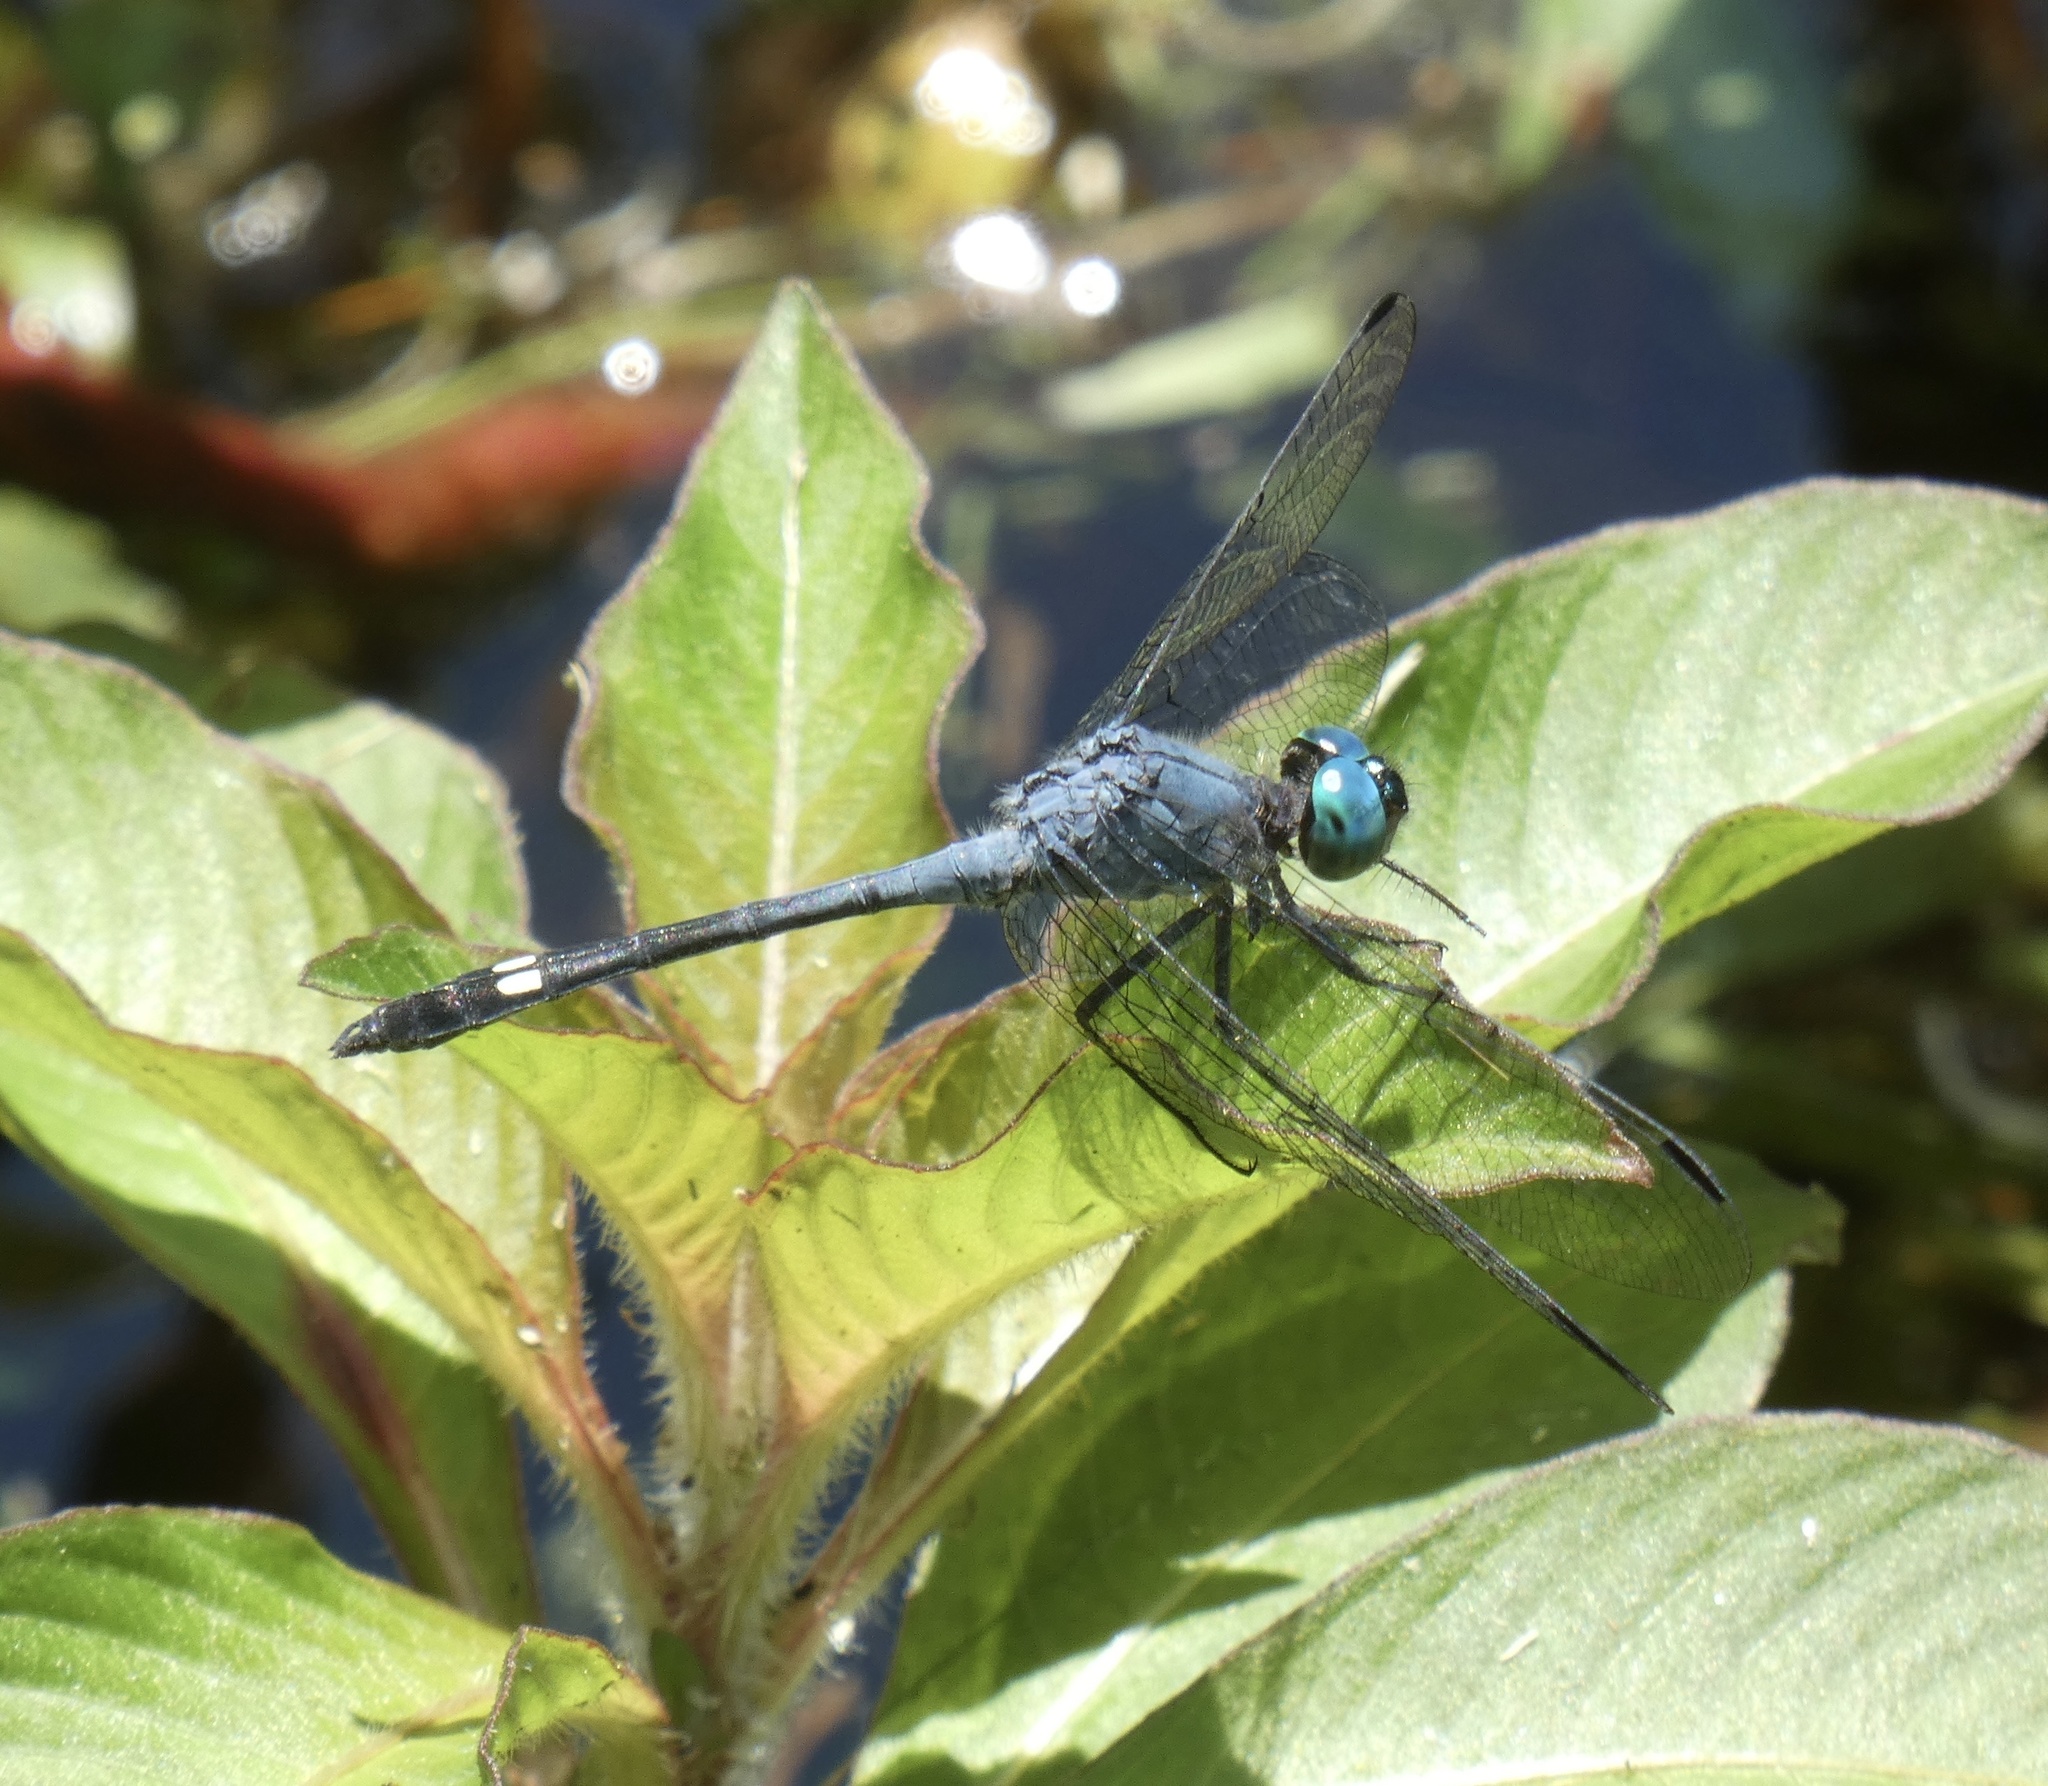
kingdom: Animalia
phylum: Arthropoda
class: Insecta
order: Odonata
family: Libellulidae
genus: Micrathyria
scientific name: Micrathyria stawiarskii
